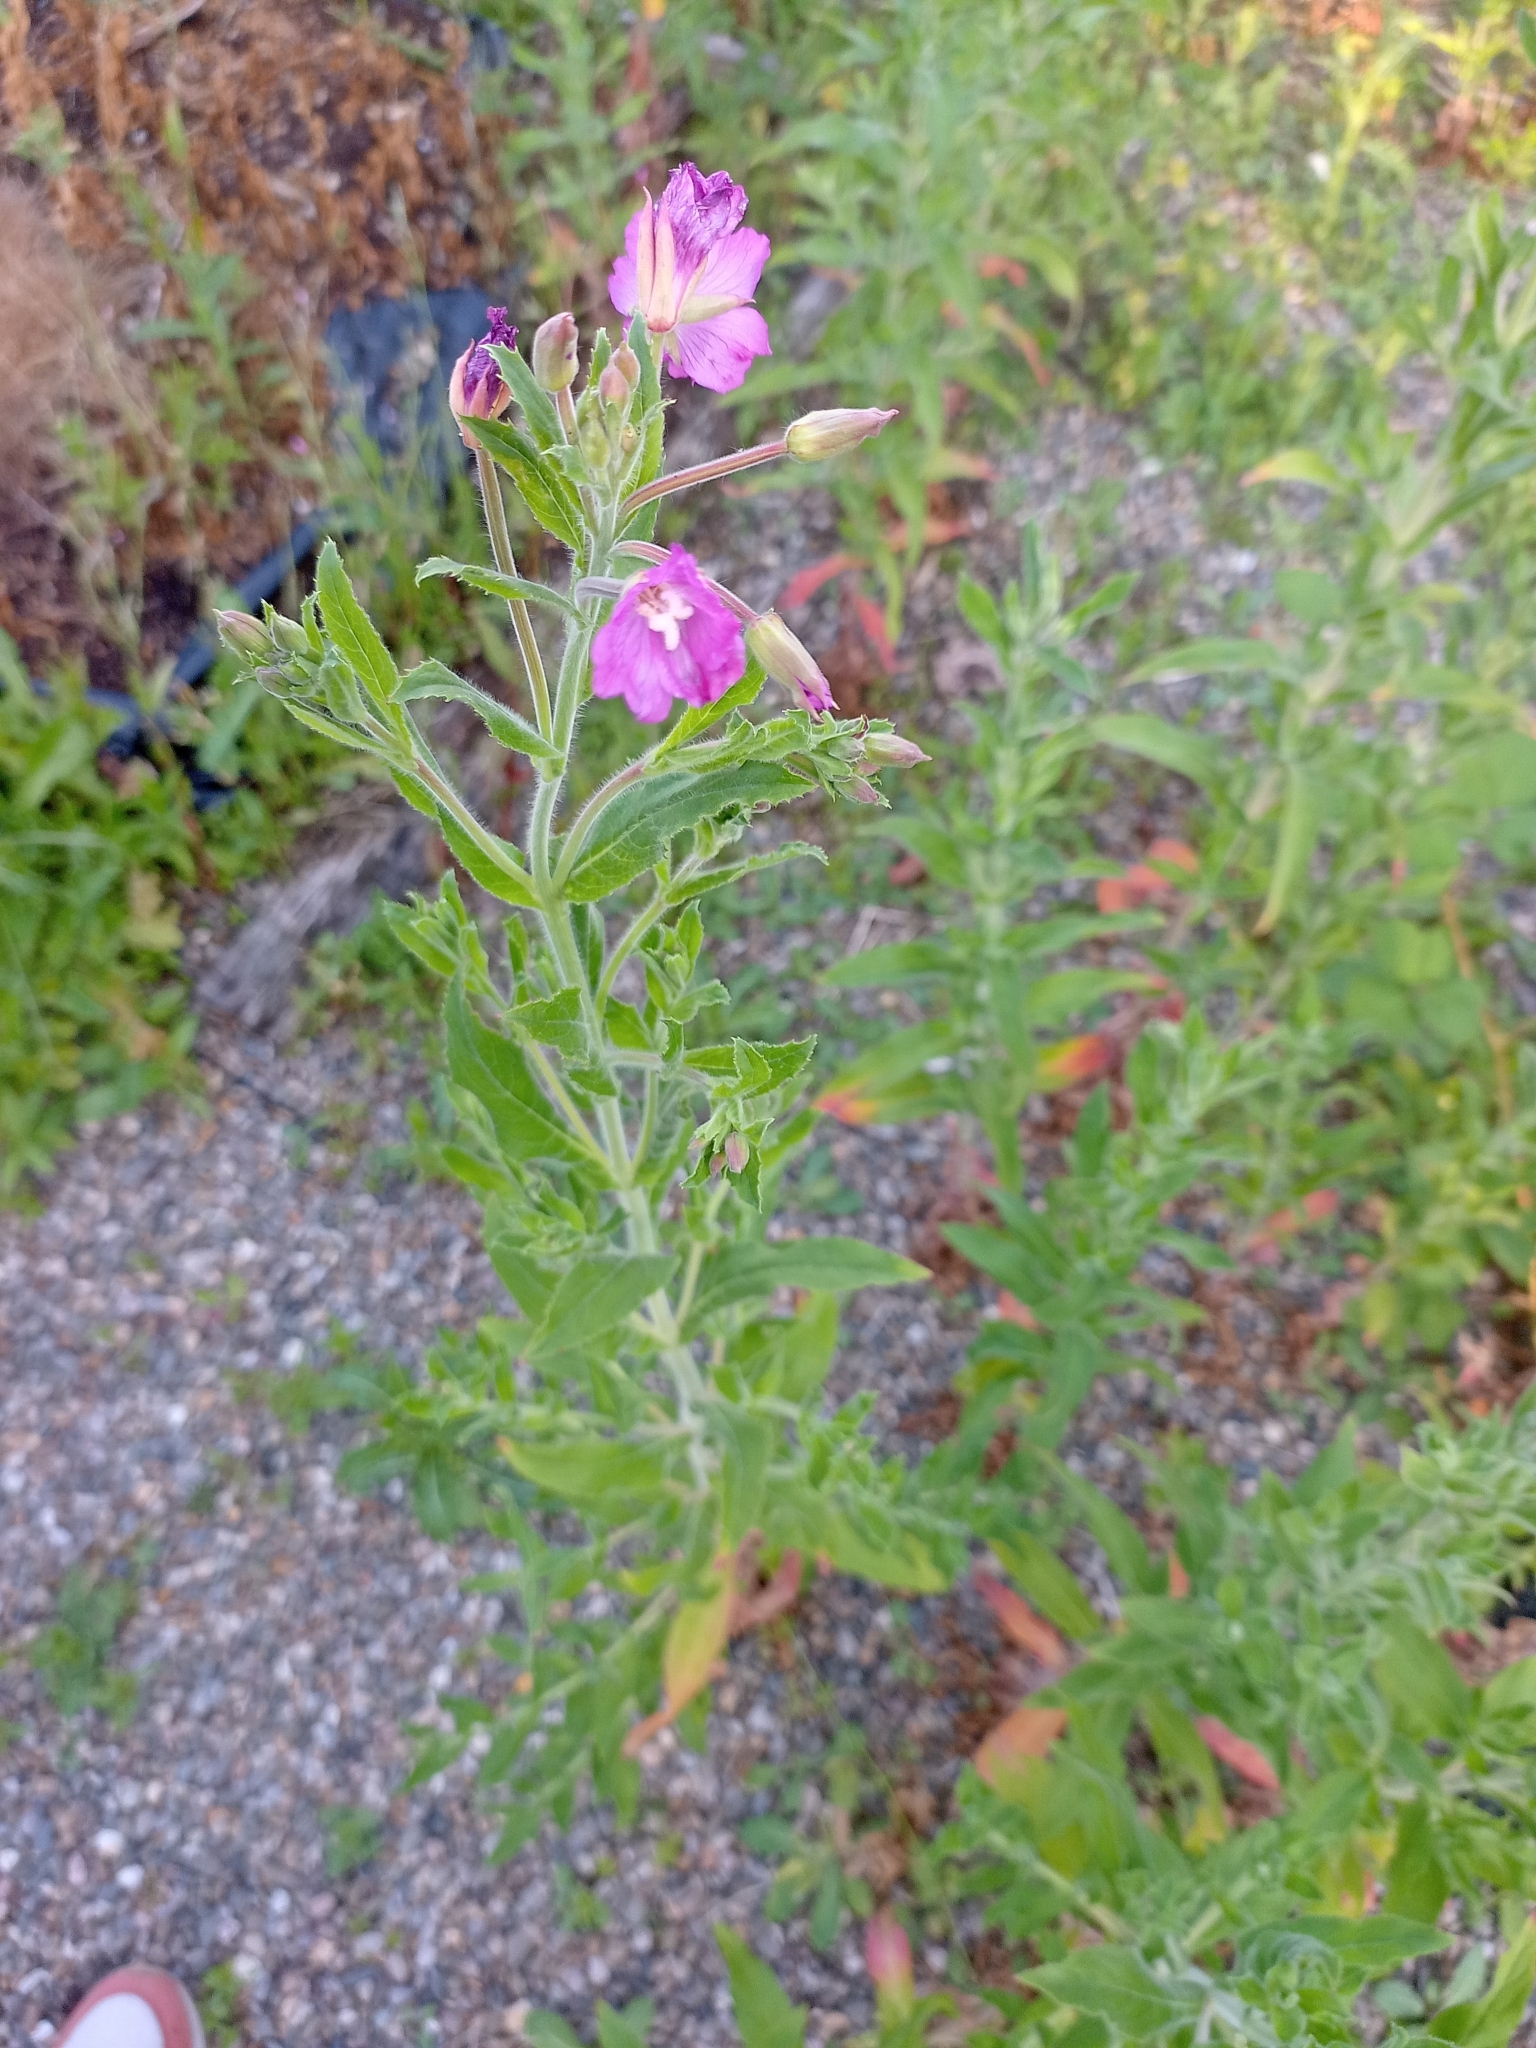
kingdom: Plantae
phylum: Tracheophyta
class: Magnoliopsida
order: Myrtales
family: Onagraceae
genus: Epilobium
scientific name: Epilobium hirsutum
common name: Great willowherb
